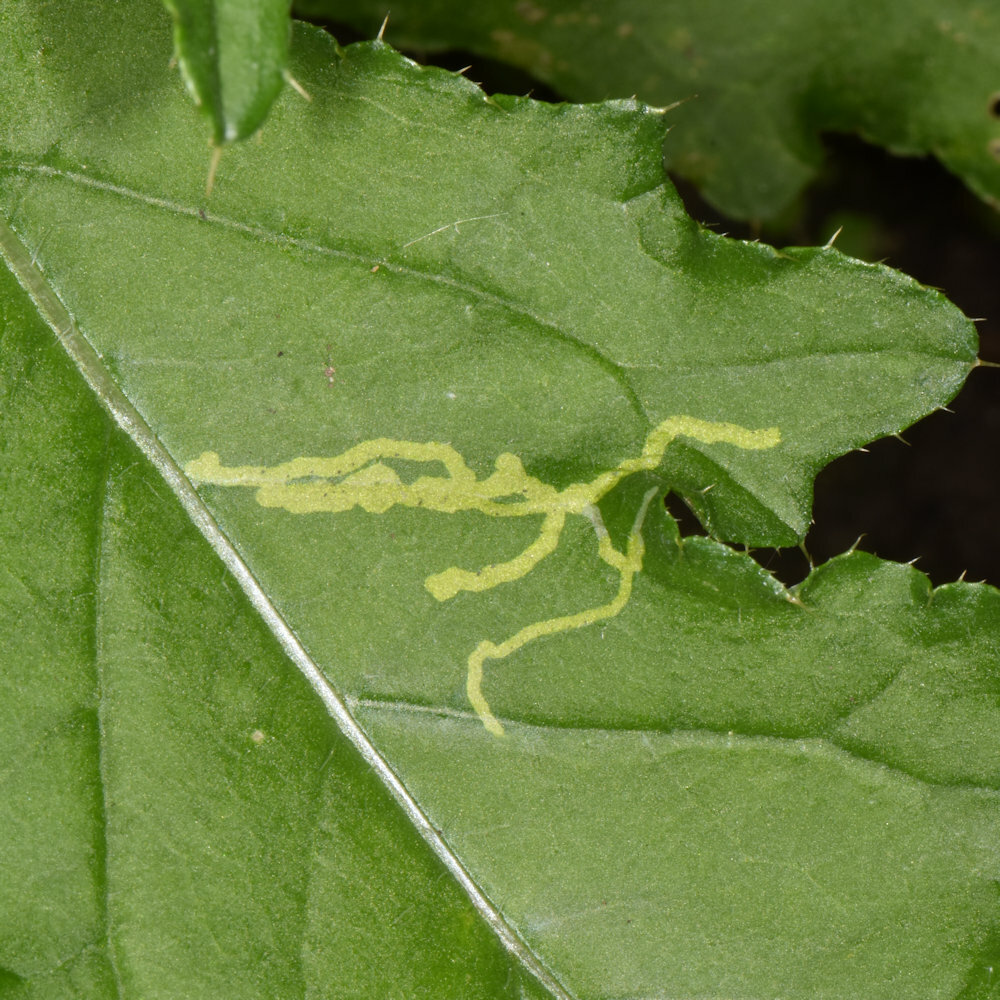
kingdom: Animalia
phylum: Arthropoda
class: Insecta
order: Diptera
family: Agromyzidae
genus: Phytomyza
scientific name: Phytomyza spinaciae
